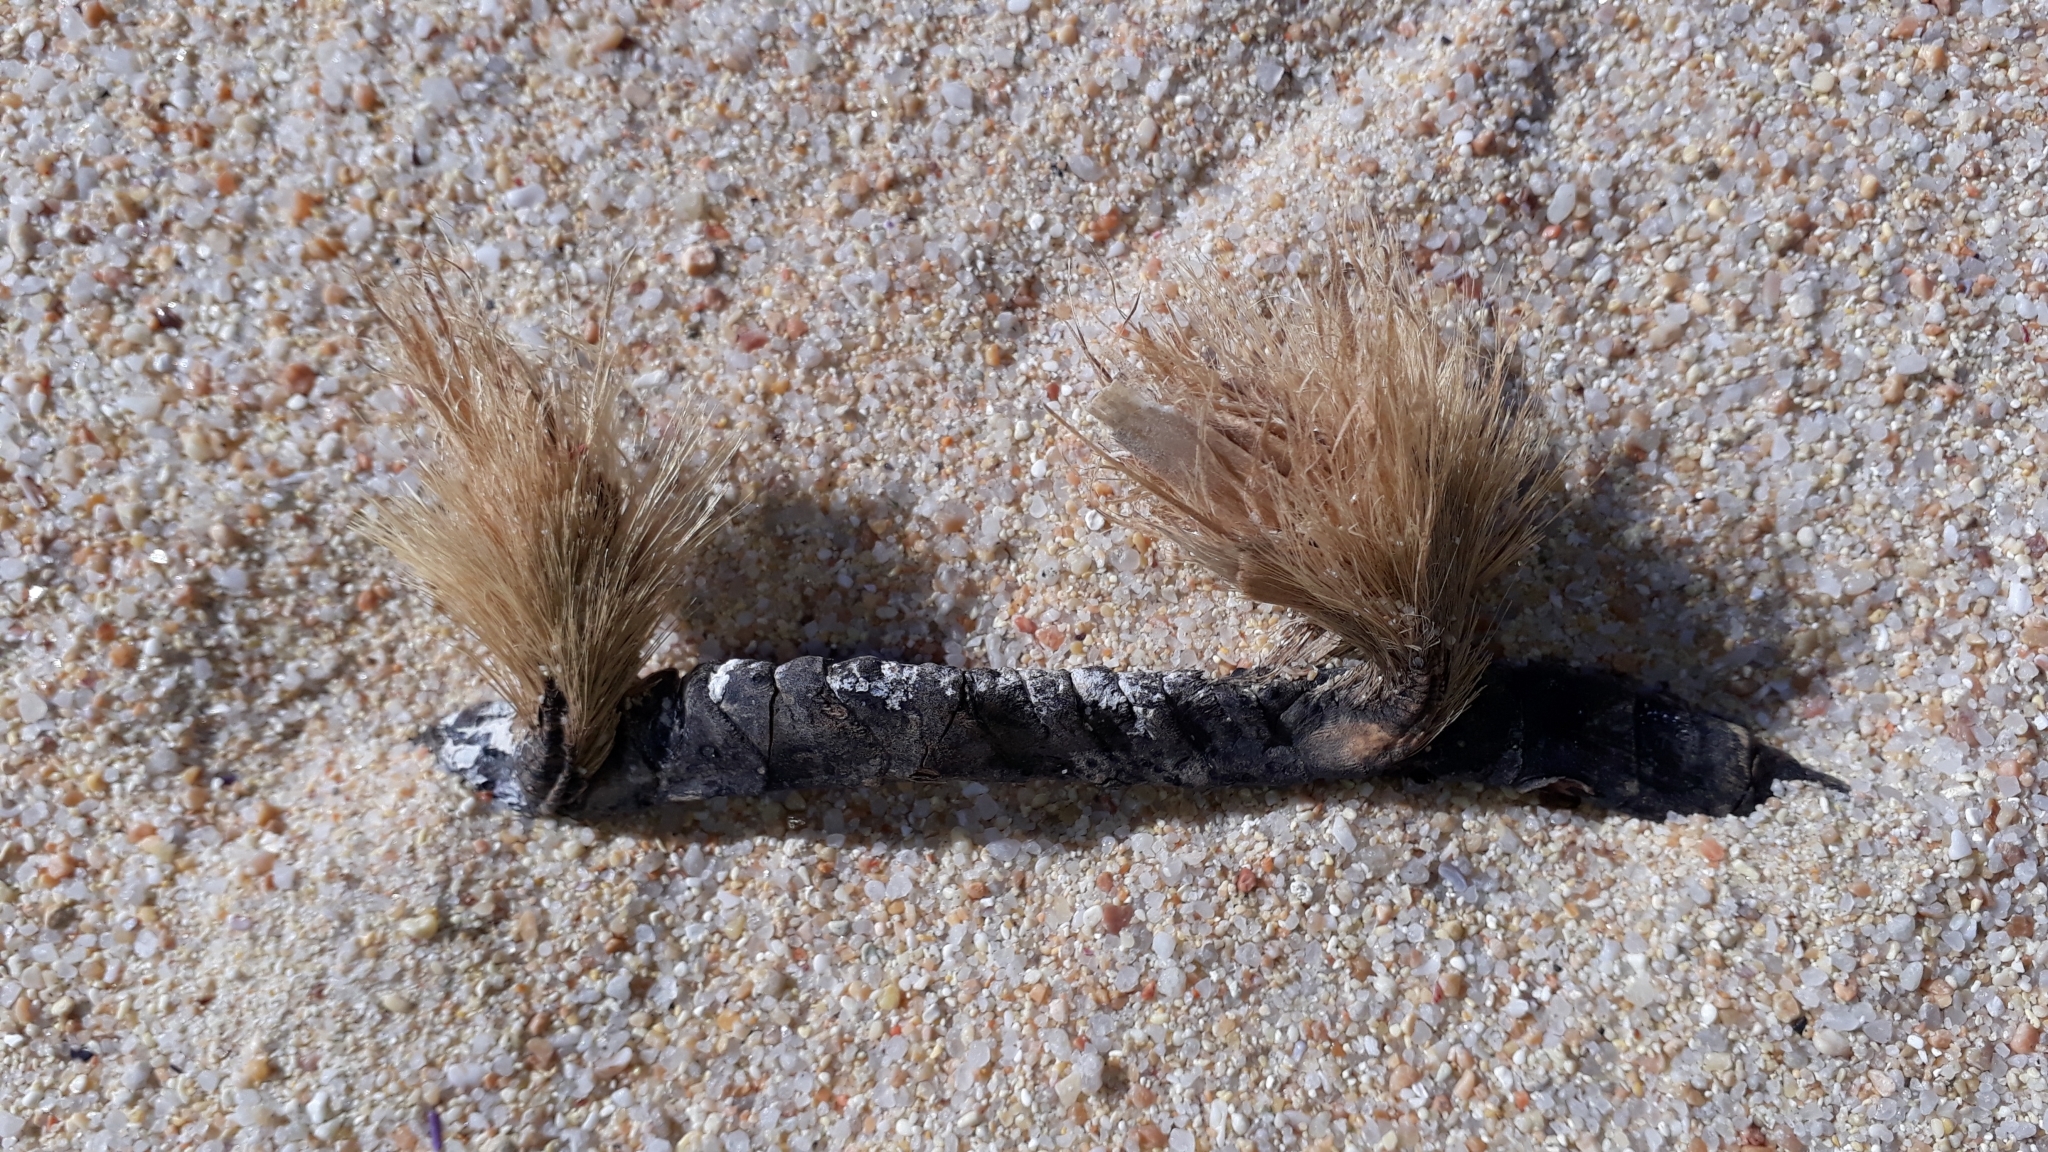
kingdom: Plantae
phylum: Tracheophyta
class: Liliopsida
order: Alismatales
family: Posidoniaceae
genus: Posidonia
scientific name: Posidonia oceanica
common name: Mediterranean tapeweed
